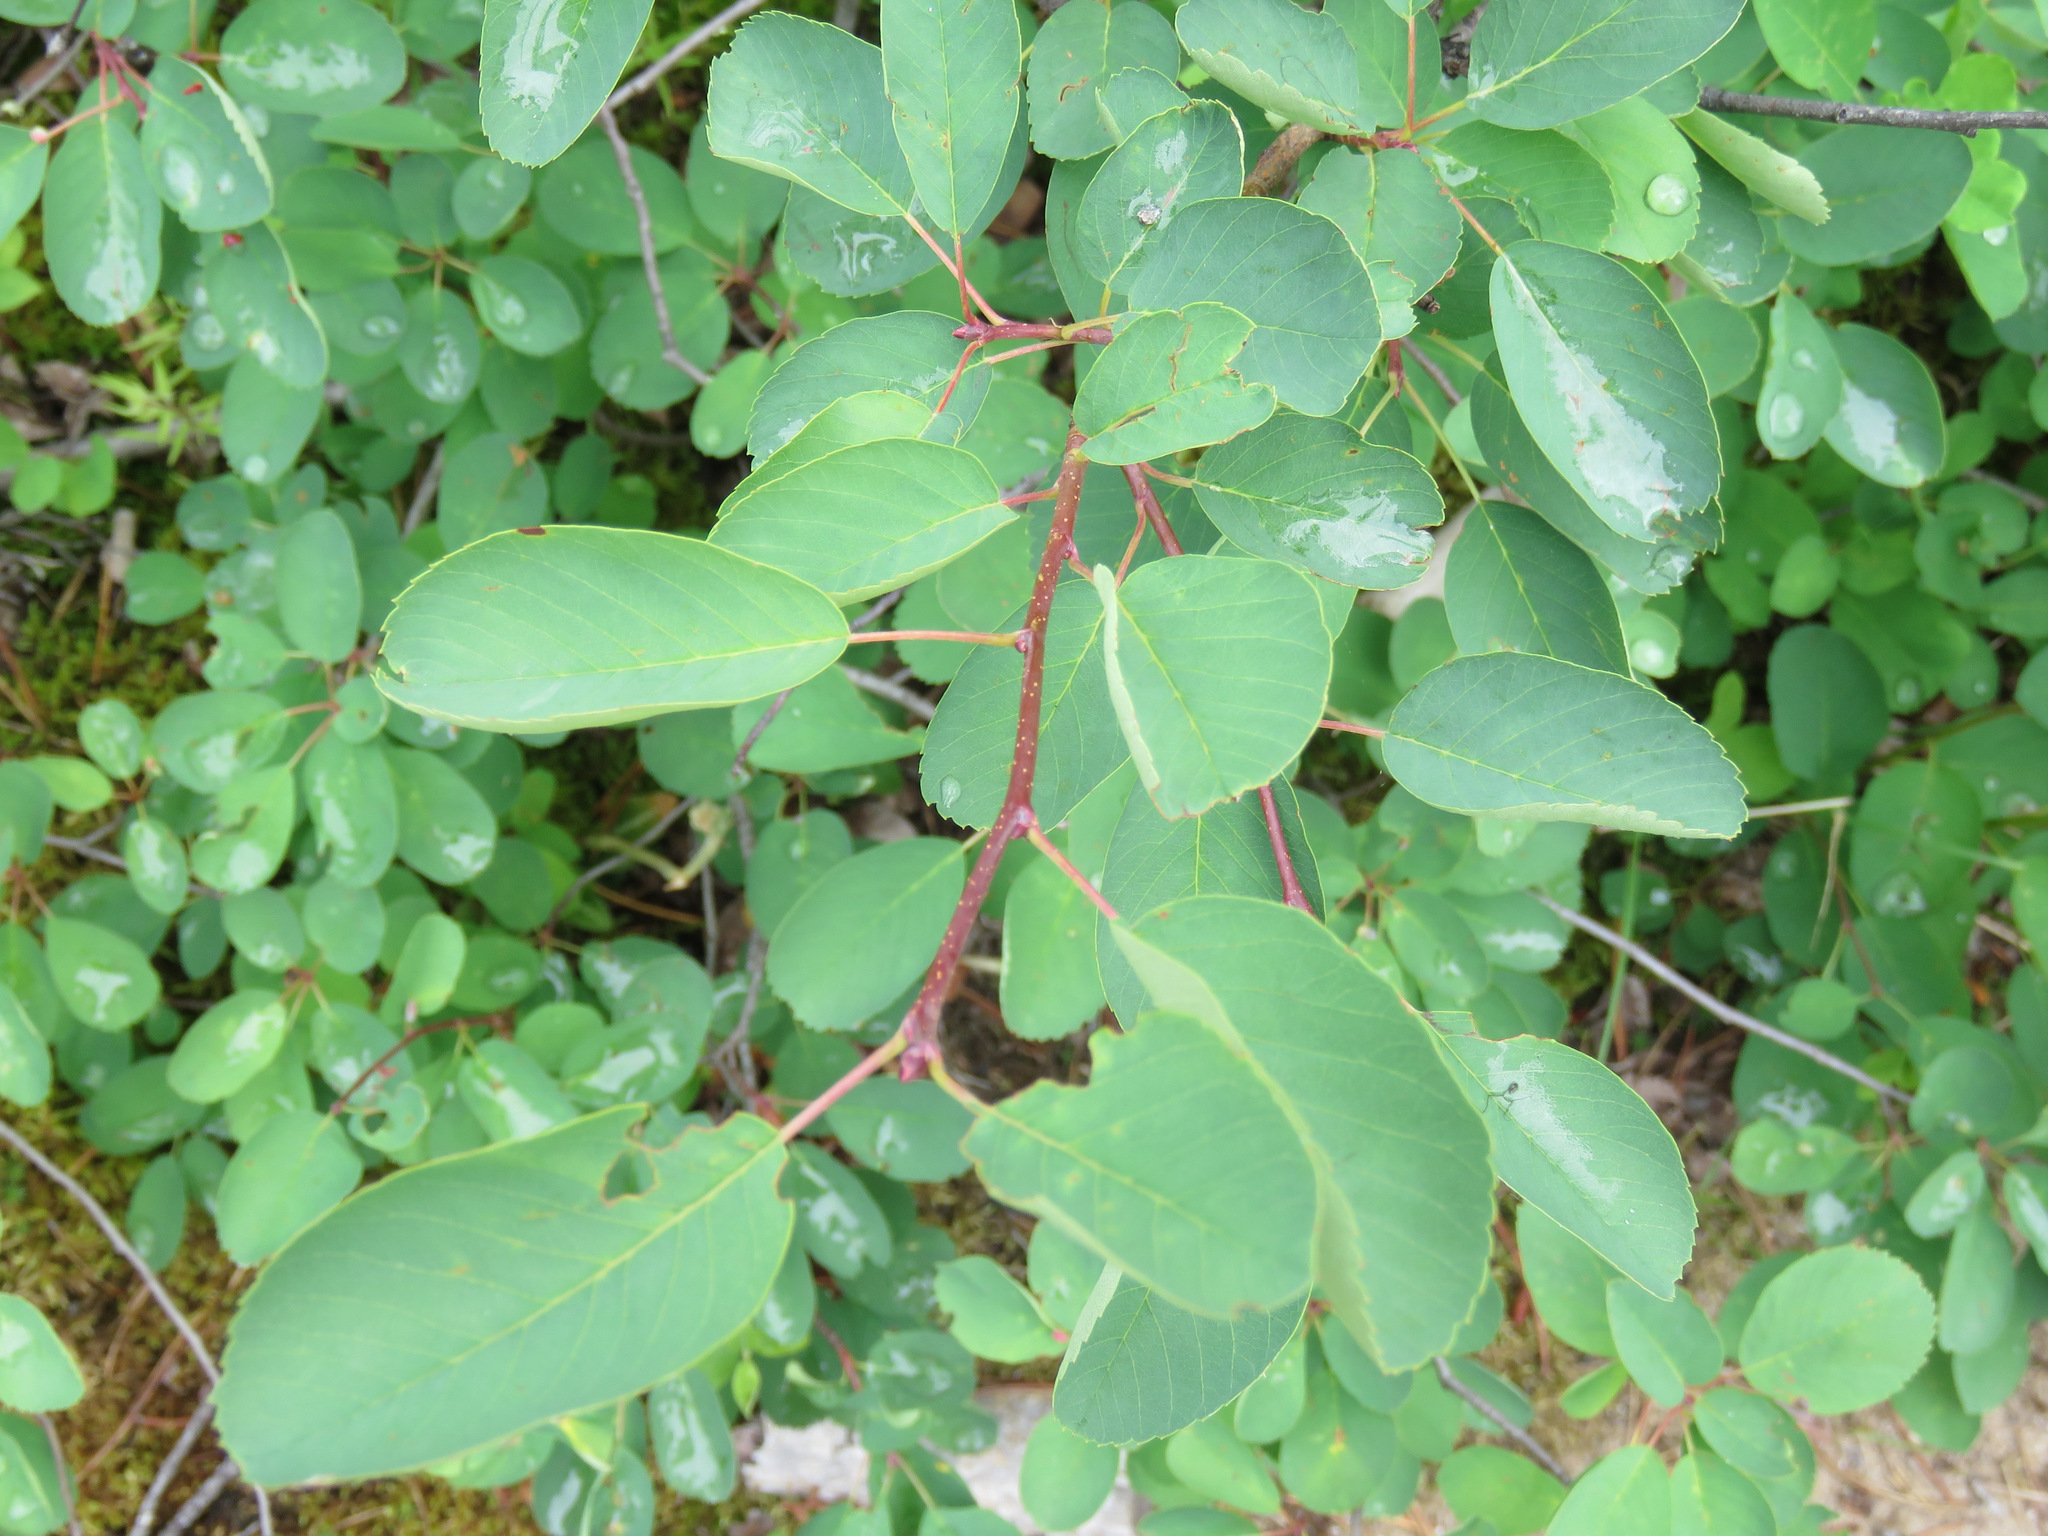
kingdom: Plantae
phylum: Tracheophyta
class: Magnoliopsida
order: Rosales
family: Rosaceae
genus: Amelanchier
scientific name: Amelanchier alnifolia
